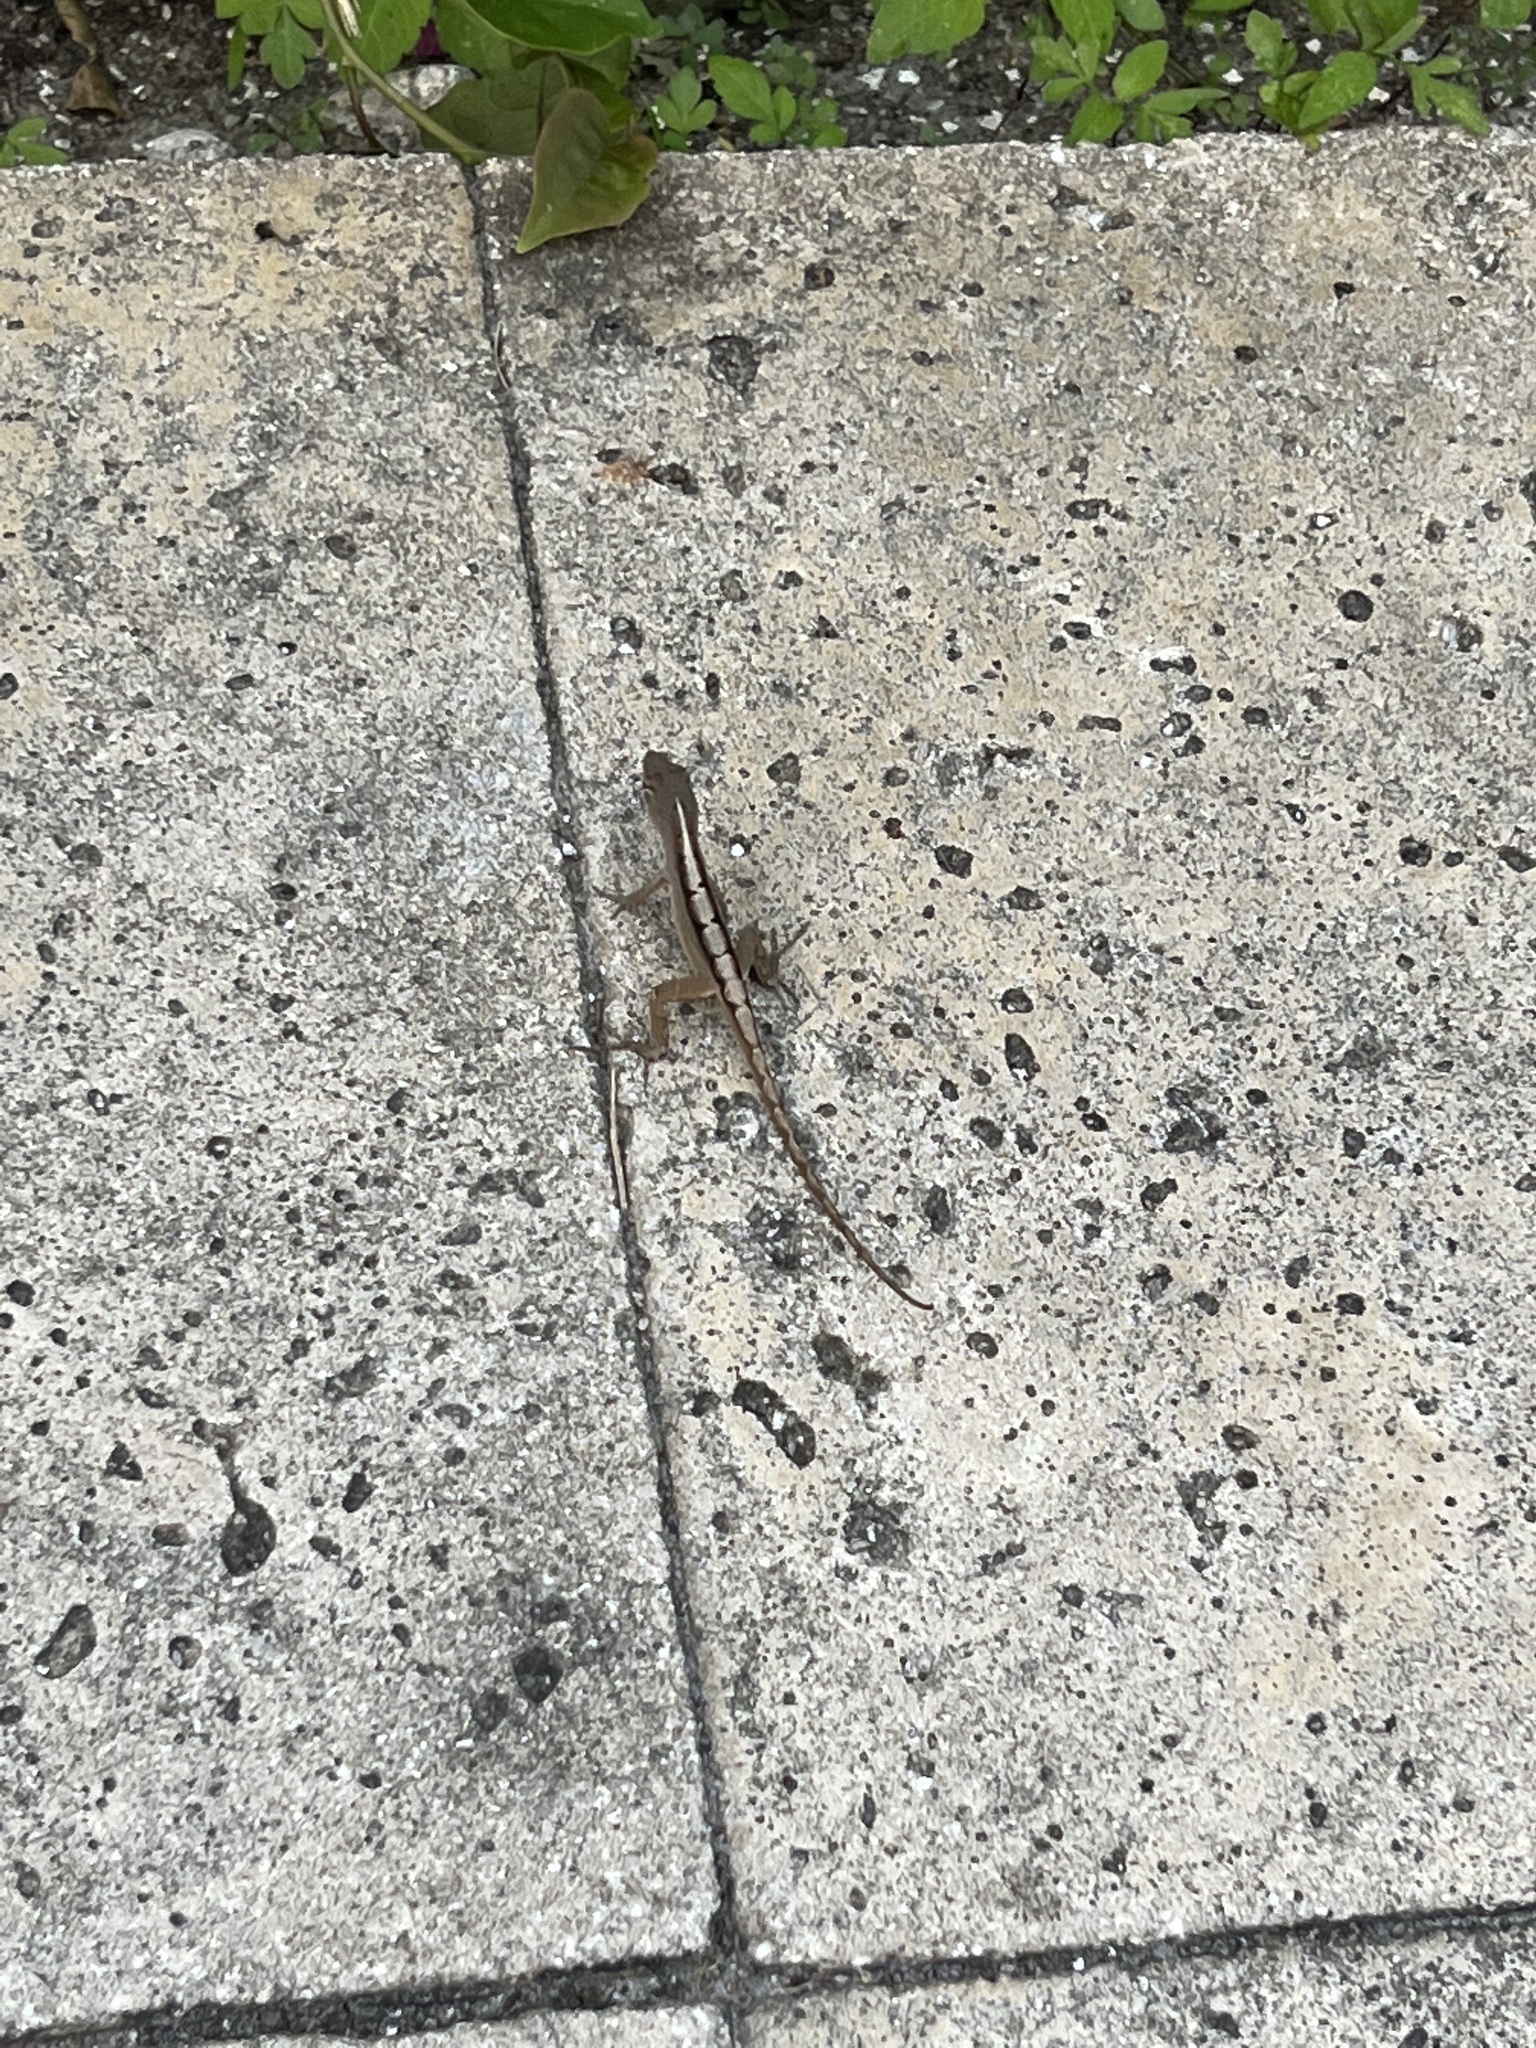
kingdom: Animalia
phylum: Chordata
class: Squamata
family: Dactyloidae
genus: Anolis
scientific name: Anolis sagrei
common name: Brown anole
